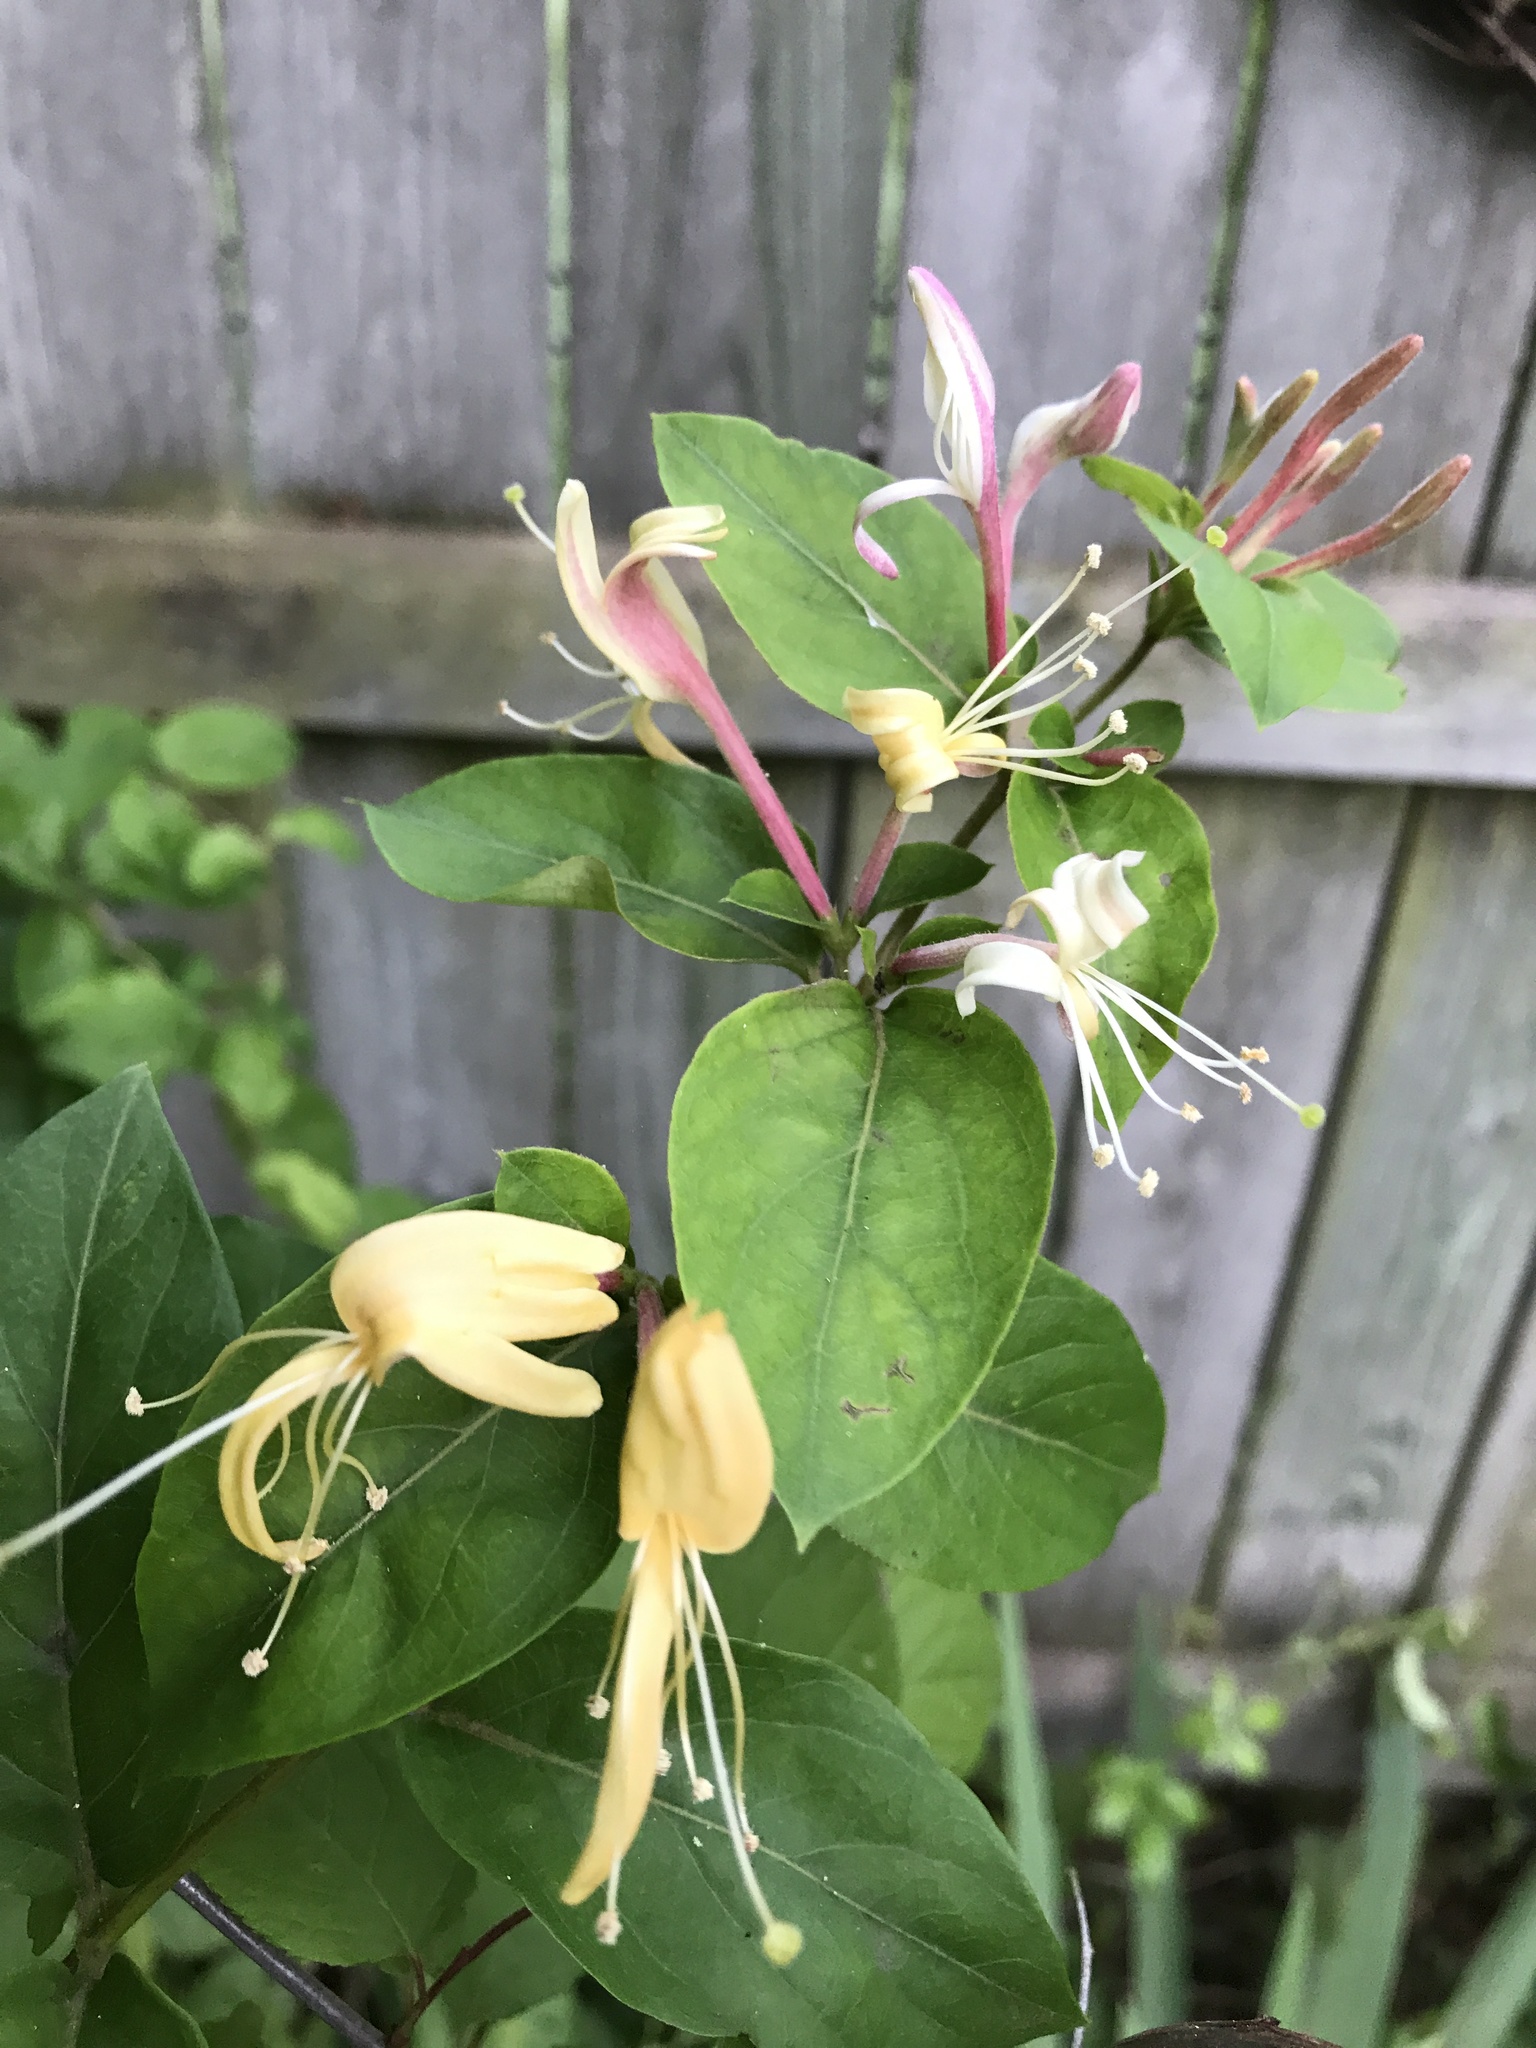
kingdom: Plantae
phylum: Tracheophyta
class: Magnoliopsida
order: Dipsacales
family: Caprifoliaceae
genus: Lonicera
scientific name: Lonicera japonica
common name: Japanese honeysuckle
